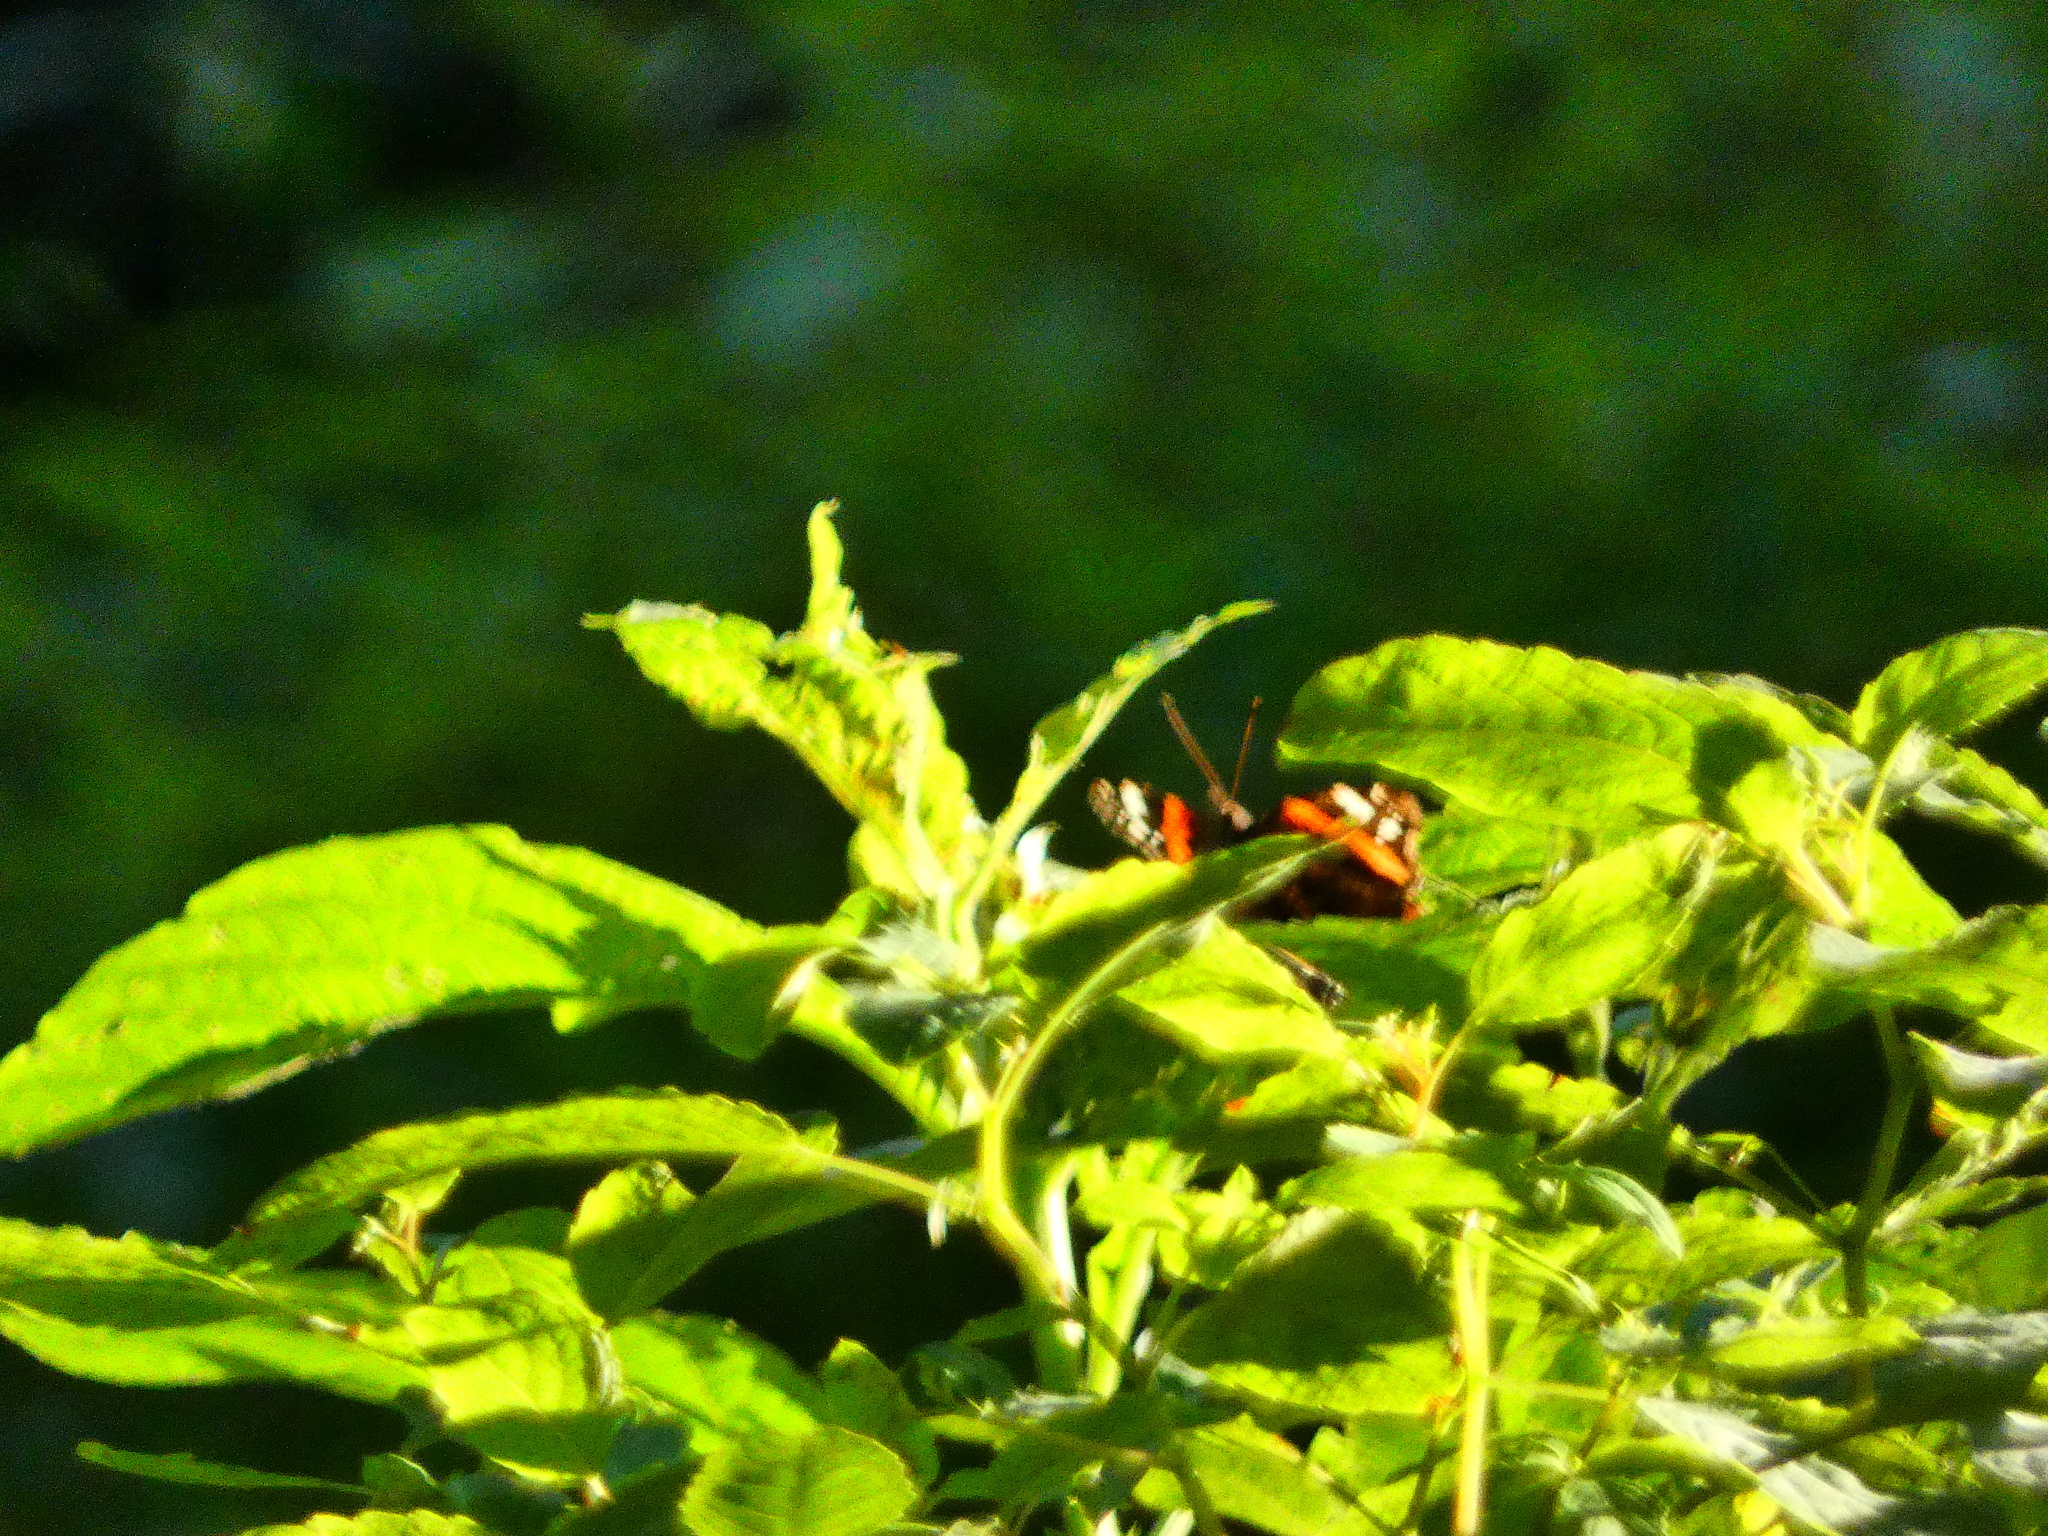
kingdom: Animalia
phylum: Arthropoda
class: Insecta
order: Lepidoptera
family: Nymphalidae
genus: Vanessa
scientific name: Vanessa atalanta
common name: Red admiral
